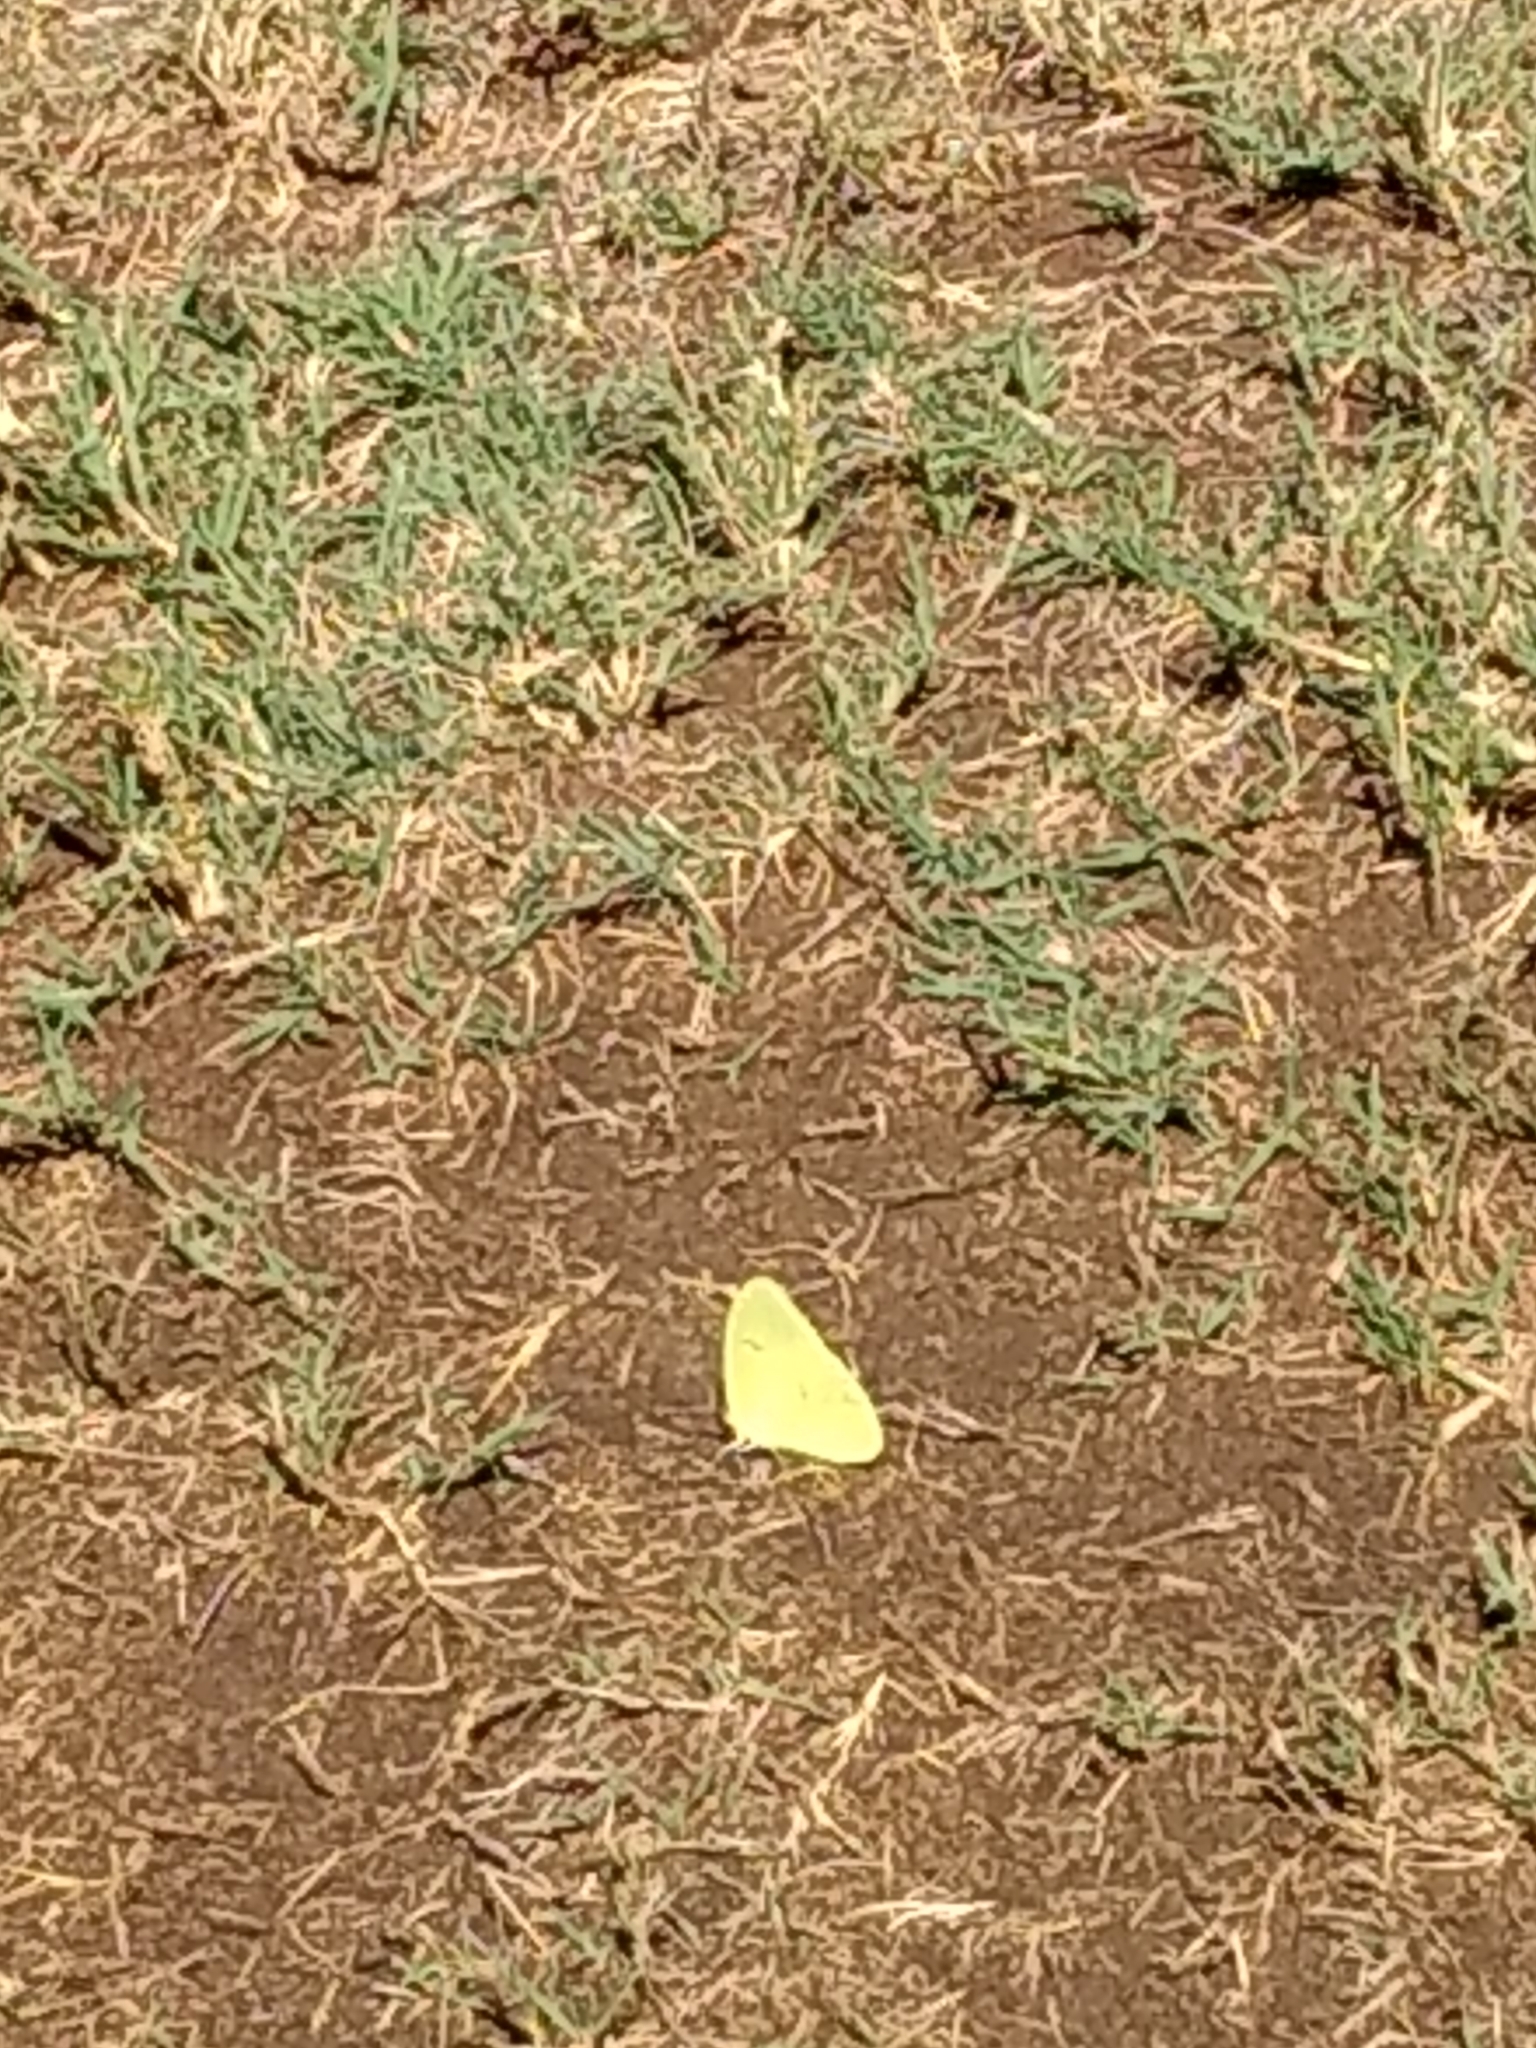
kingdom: Animalia
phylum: Arthropoda
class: Insecta
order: Lepidoptera
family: Pieridae
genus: Phoebis
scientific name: Phoebis sennae
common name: Cloudless sulphur
